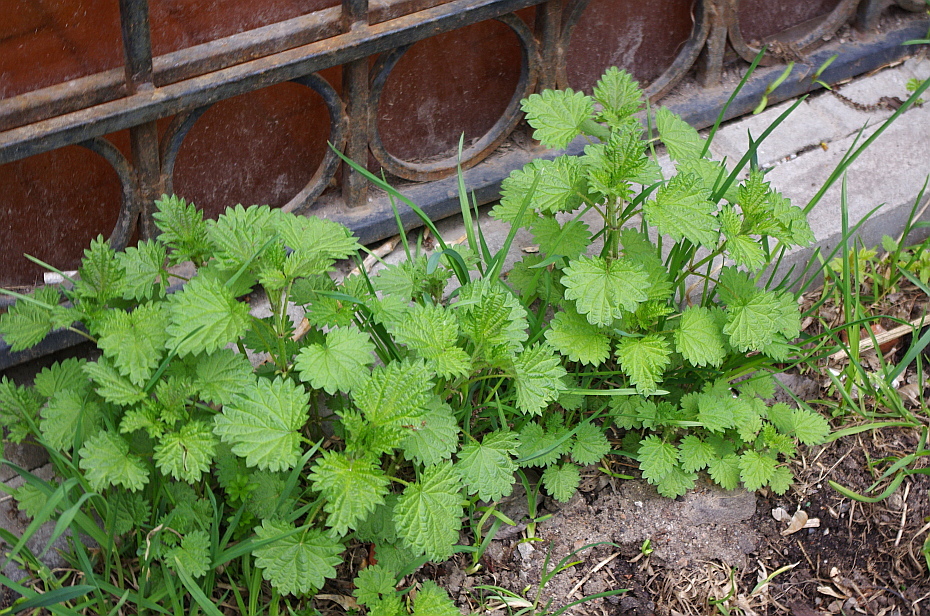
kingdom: Plantae
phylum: Tracheophyta
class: Magnoliopsida
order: Rosales
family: Urticaceae
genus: Urtica
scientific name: Urtica dioica
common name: Common nettle
